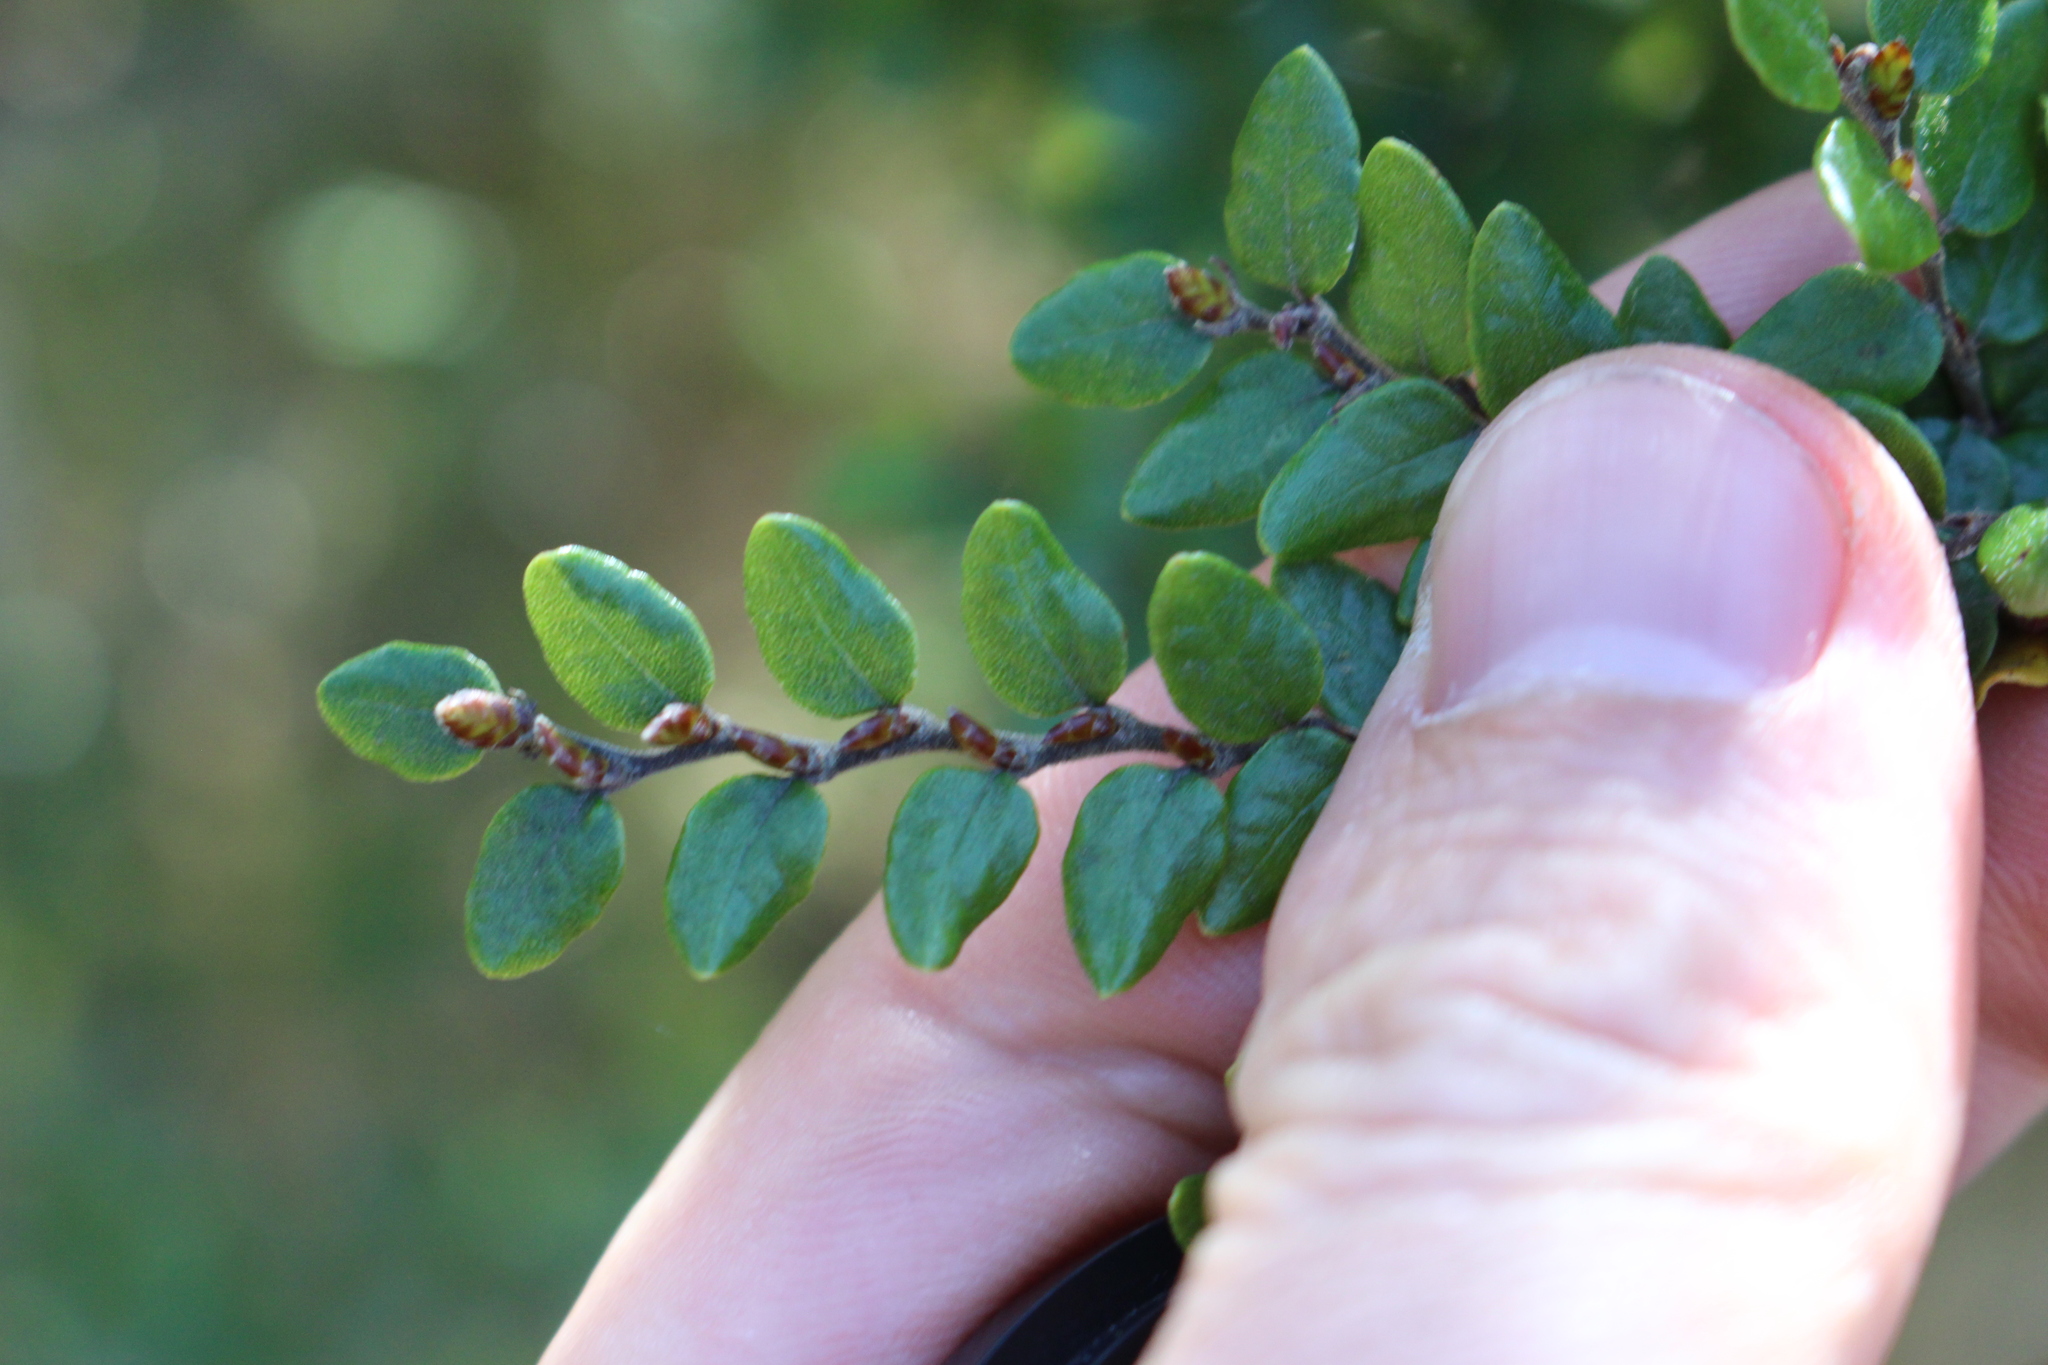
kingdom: Plantae
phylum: Tracheophyta
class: Magnoliopsida
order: Fagales
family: Nothofagaceae
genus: Nothofagus
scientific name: Nothofagus cliffortioides
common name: Mountain beech
